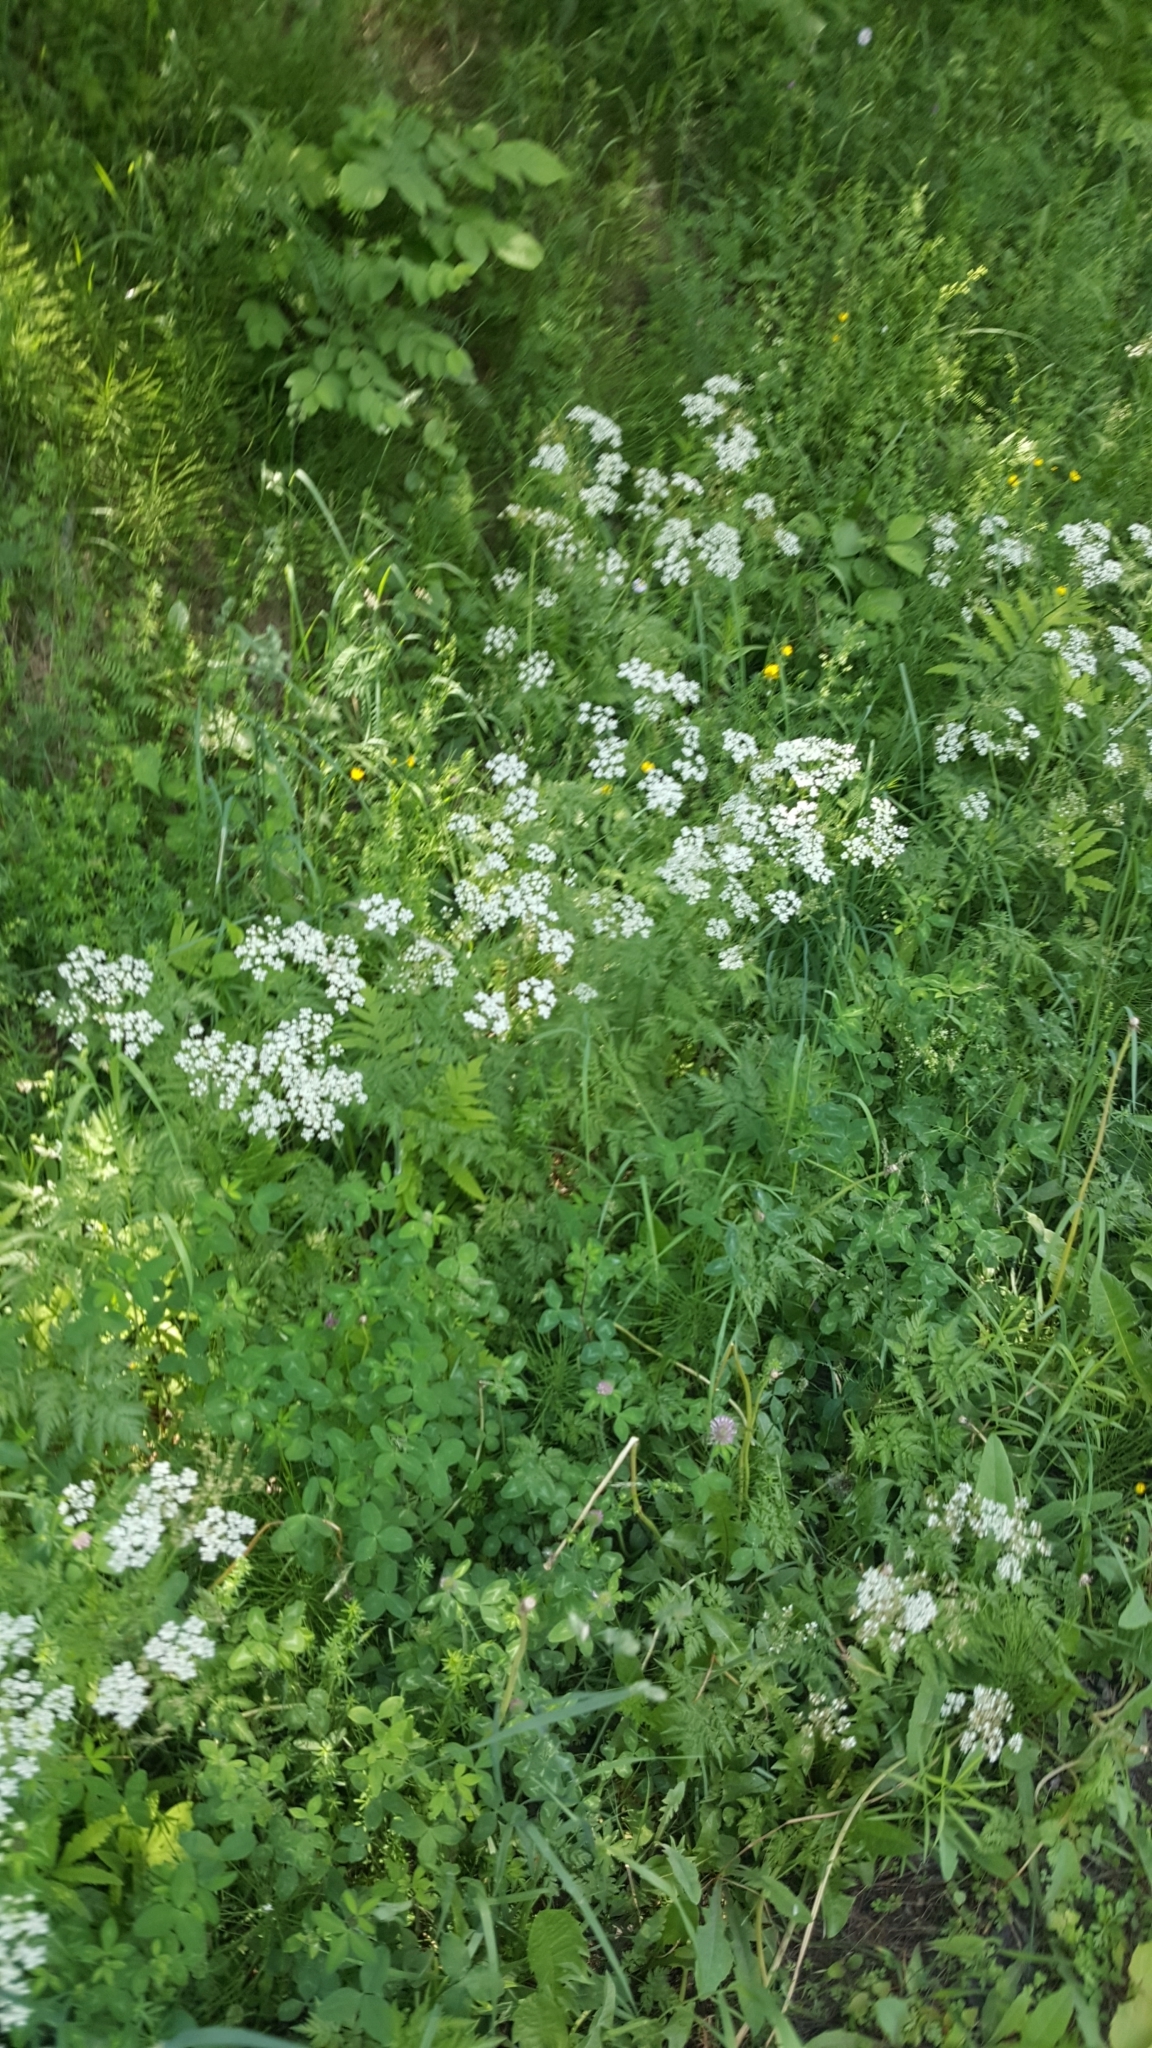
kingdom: Plantae
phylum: Tracheophyta
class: Magnoliopsida
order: Apiales
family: Apiaceae
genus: Anthriscus
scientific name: Anthriscus sylvestris
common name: Cow parsley
